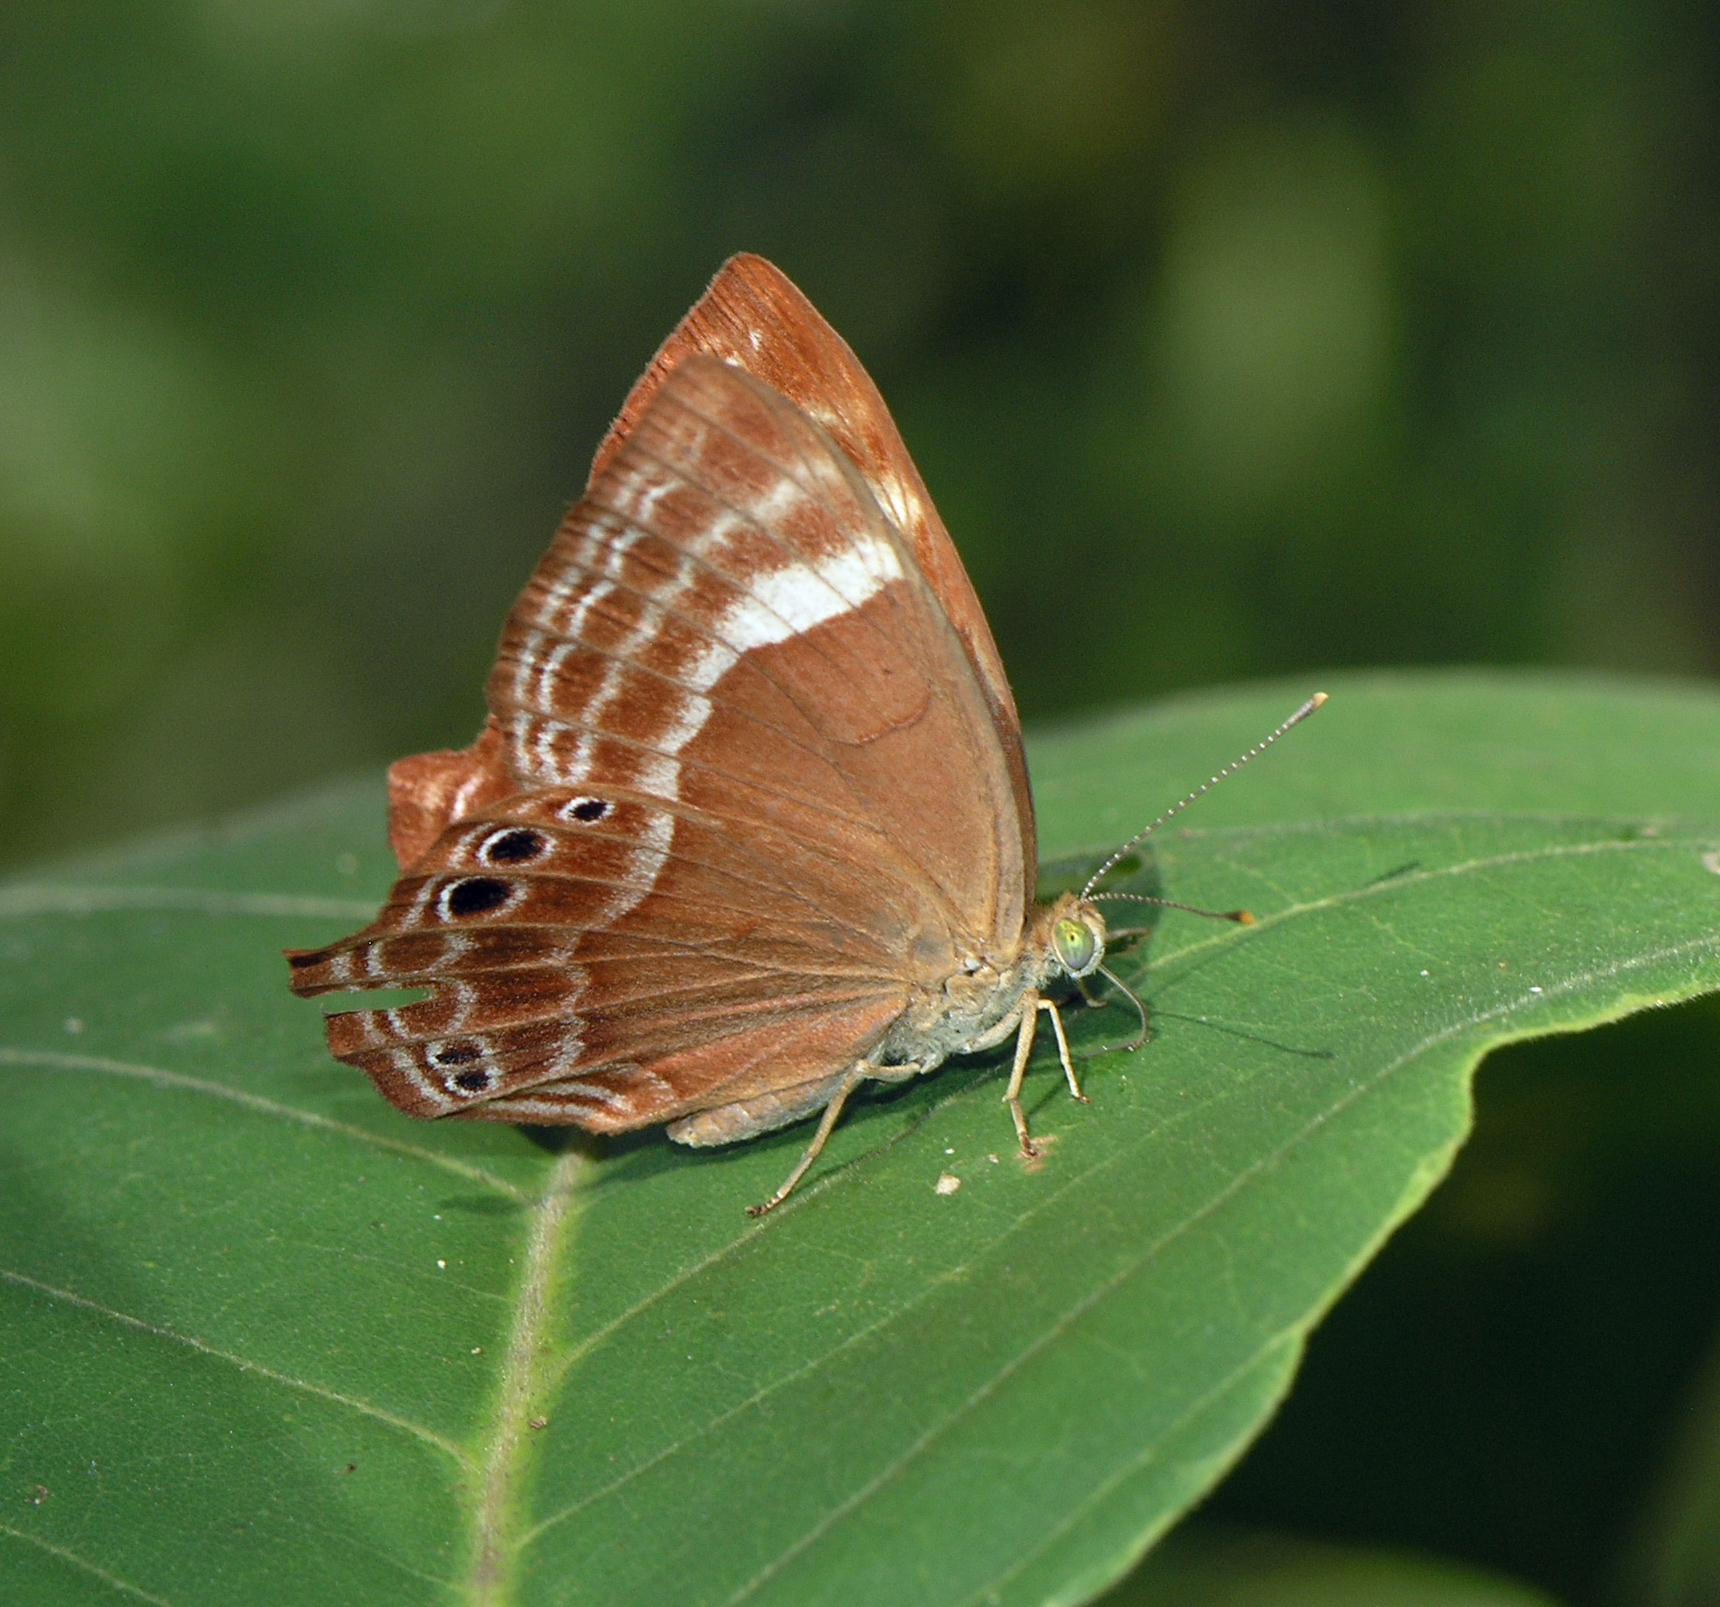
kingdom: Animalia
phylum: Arthropoda
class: Insecta
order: Lepidoptera
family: Lycaenidae
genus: Abisara
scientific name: Abisara bifasciata
